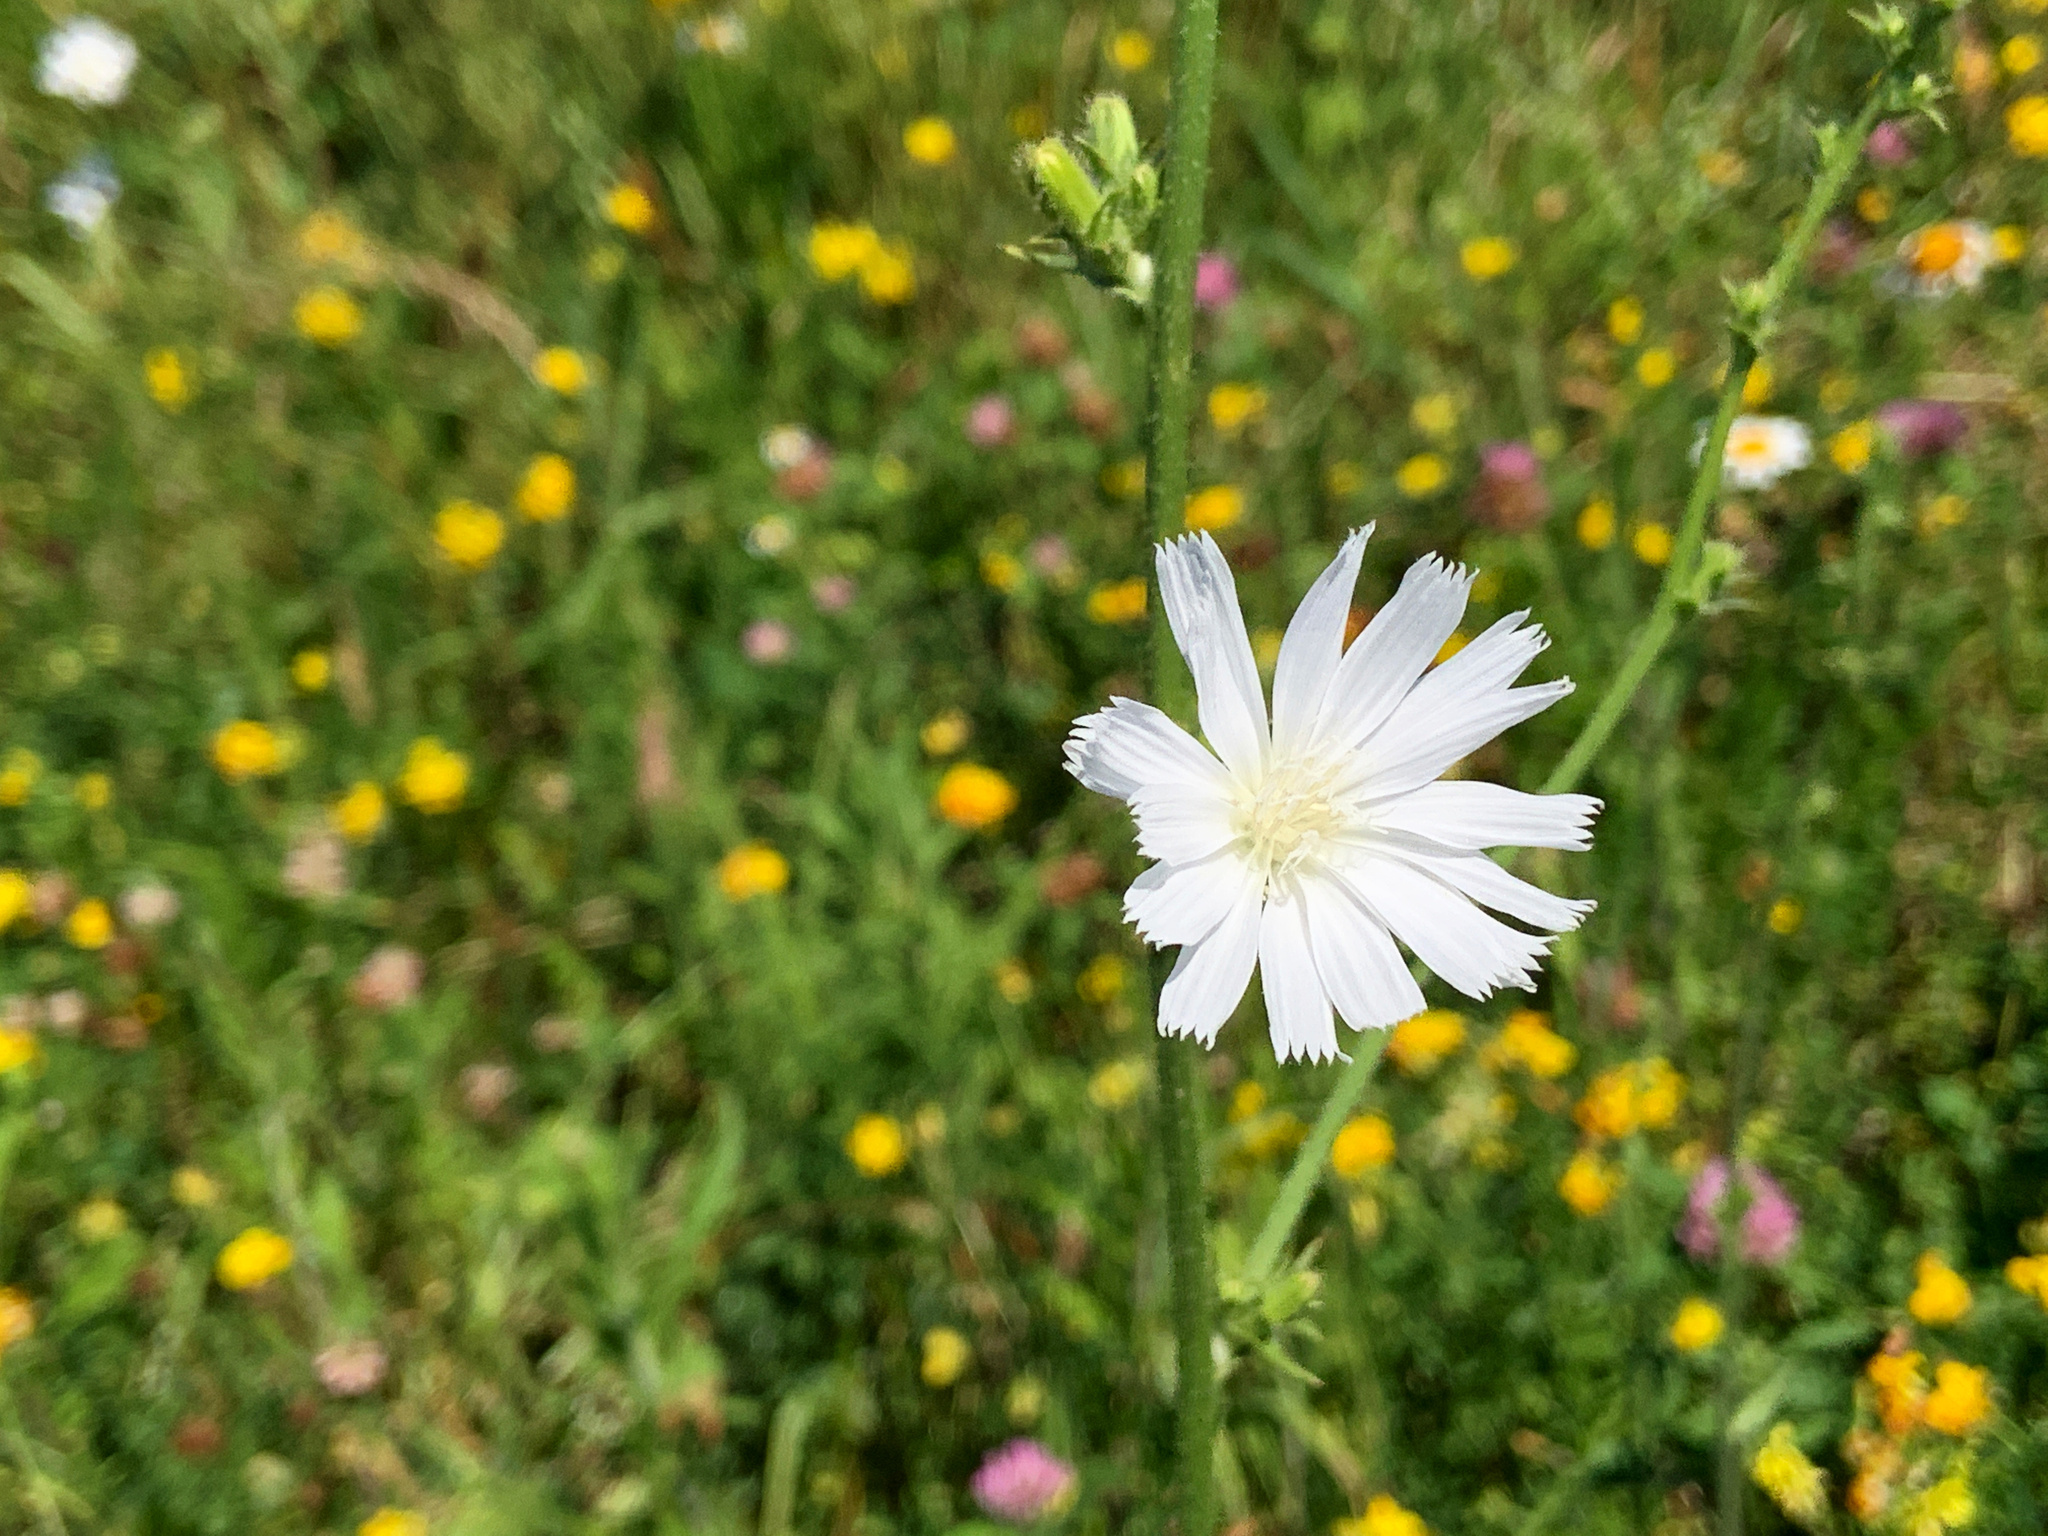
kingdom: Plantae
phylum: Tracheophyta
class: Magnoliopsida
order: Asterales
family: Asteraceae
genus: Cichorium
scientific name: Cichorium intybus
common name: Chicory
